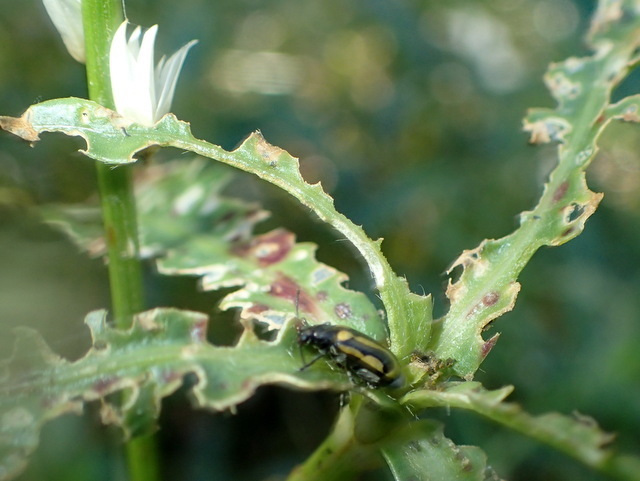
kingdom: Animalia
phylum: Arthropoda
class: Insecta
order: Coleoptera
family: Chrysomelidae
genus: Agasicles
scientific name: Agasicles hygrophila
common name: Alligatorweed flea beetle
